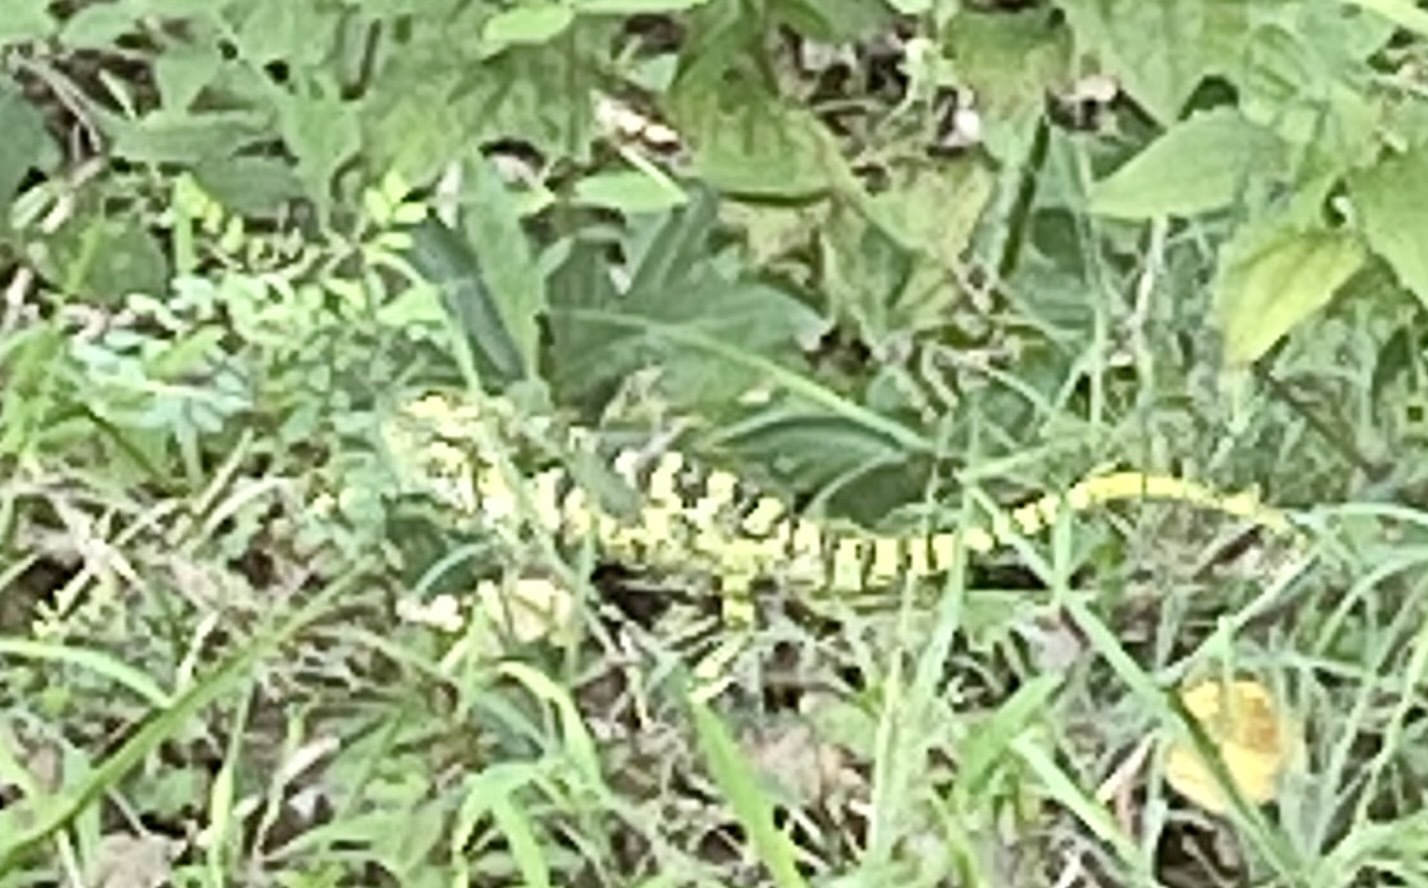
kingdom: Animalia
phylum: Chordata
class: Squamata
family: Chamaeleonidae
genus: Chamaeleo
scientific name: Chamaeleo zeylanicus
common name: Indian chameleon
